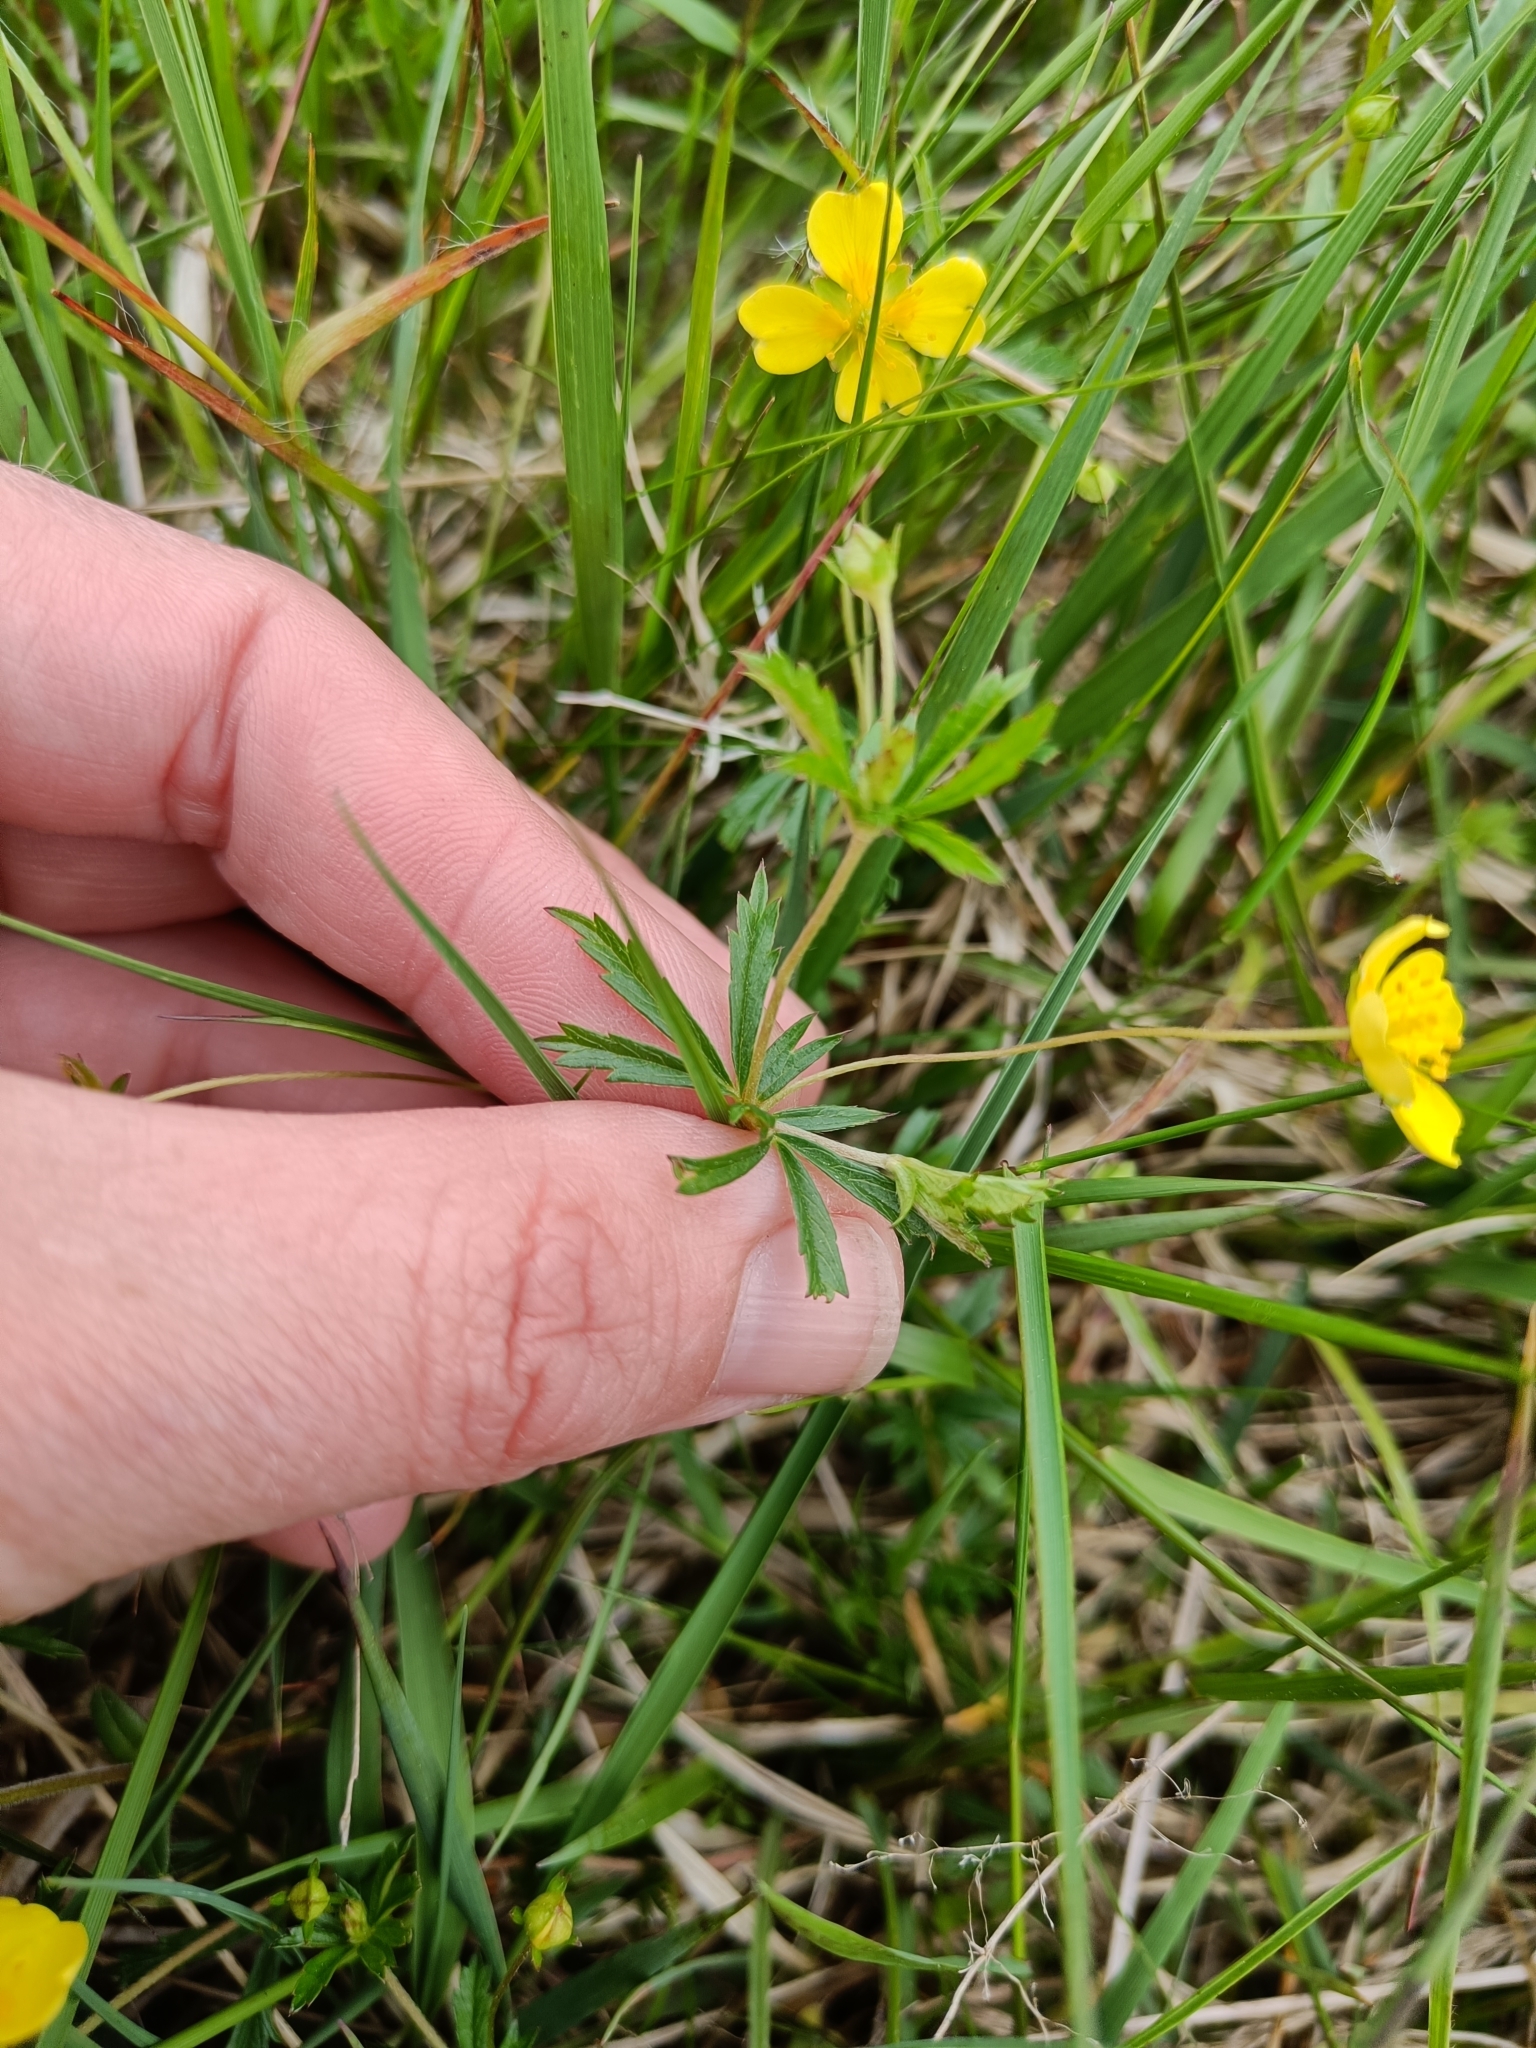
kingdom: Plantae
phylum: Tracheophyta
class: Magnoliopsida
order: Rosales
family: Rosaceae
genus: Potentilla
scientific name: Potentilla erecta
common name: Tormentil
